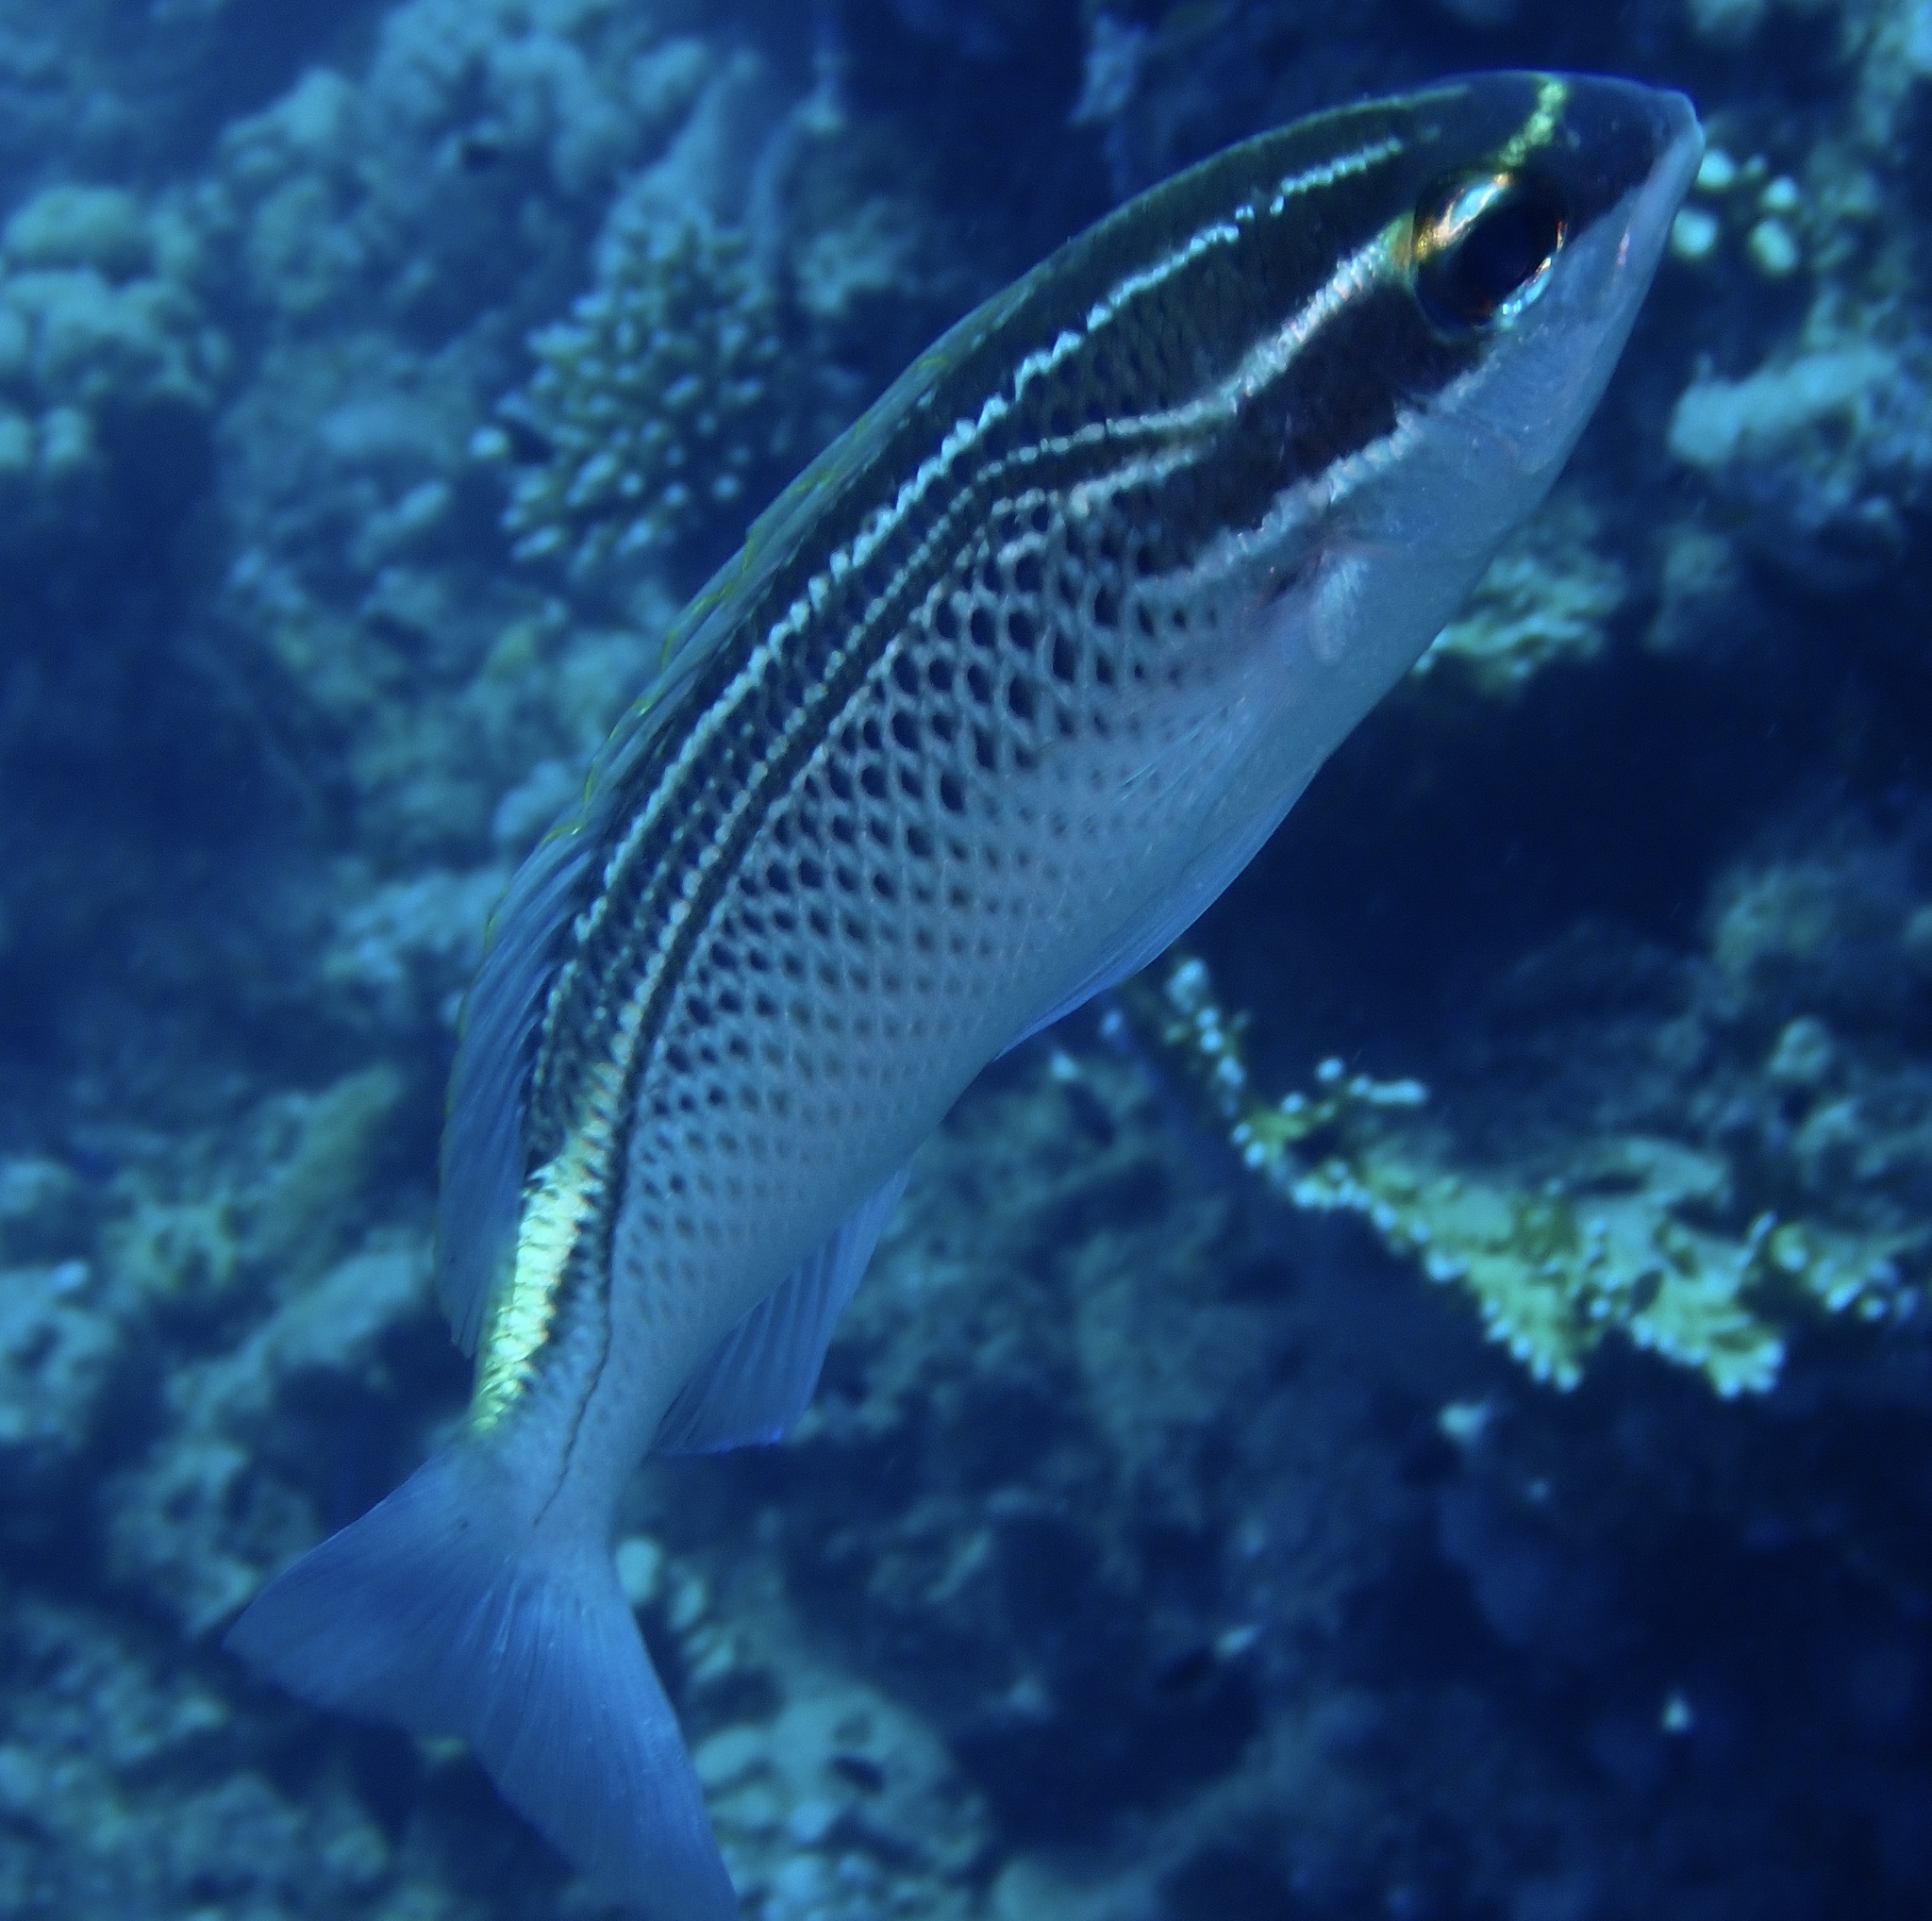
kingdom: Animalia
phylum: Chordata
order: Perciformes
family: Nemipteridae
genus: Scolopsis
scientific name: Scolopsis ghanam
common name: Arabian monocle bream
